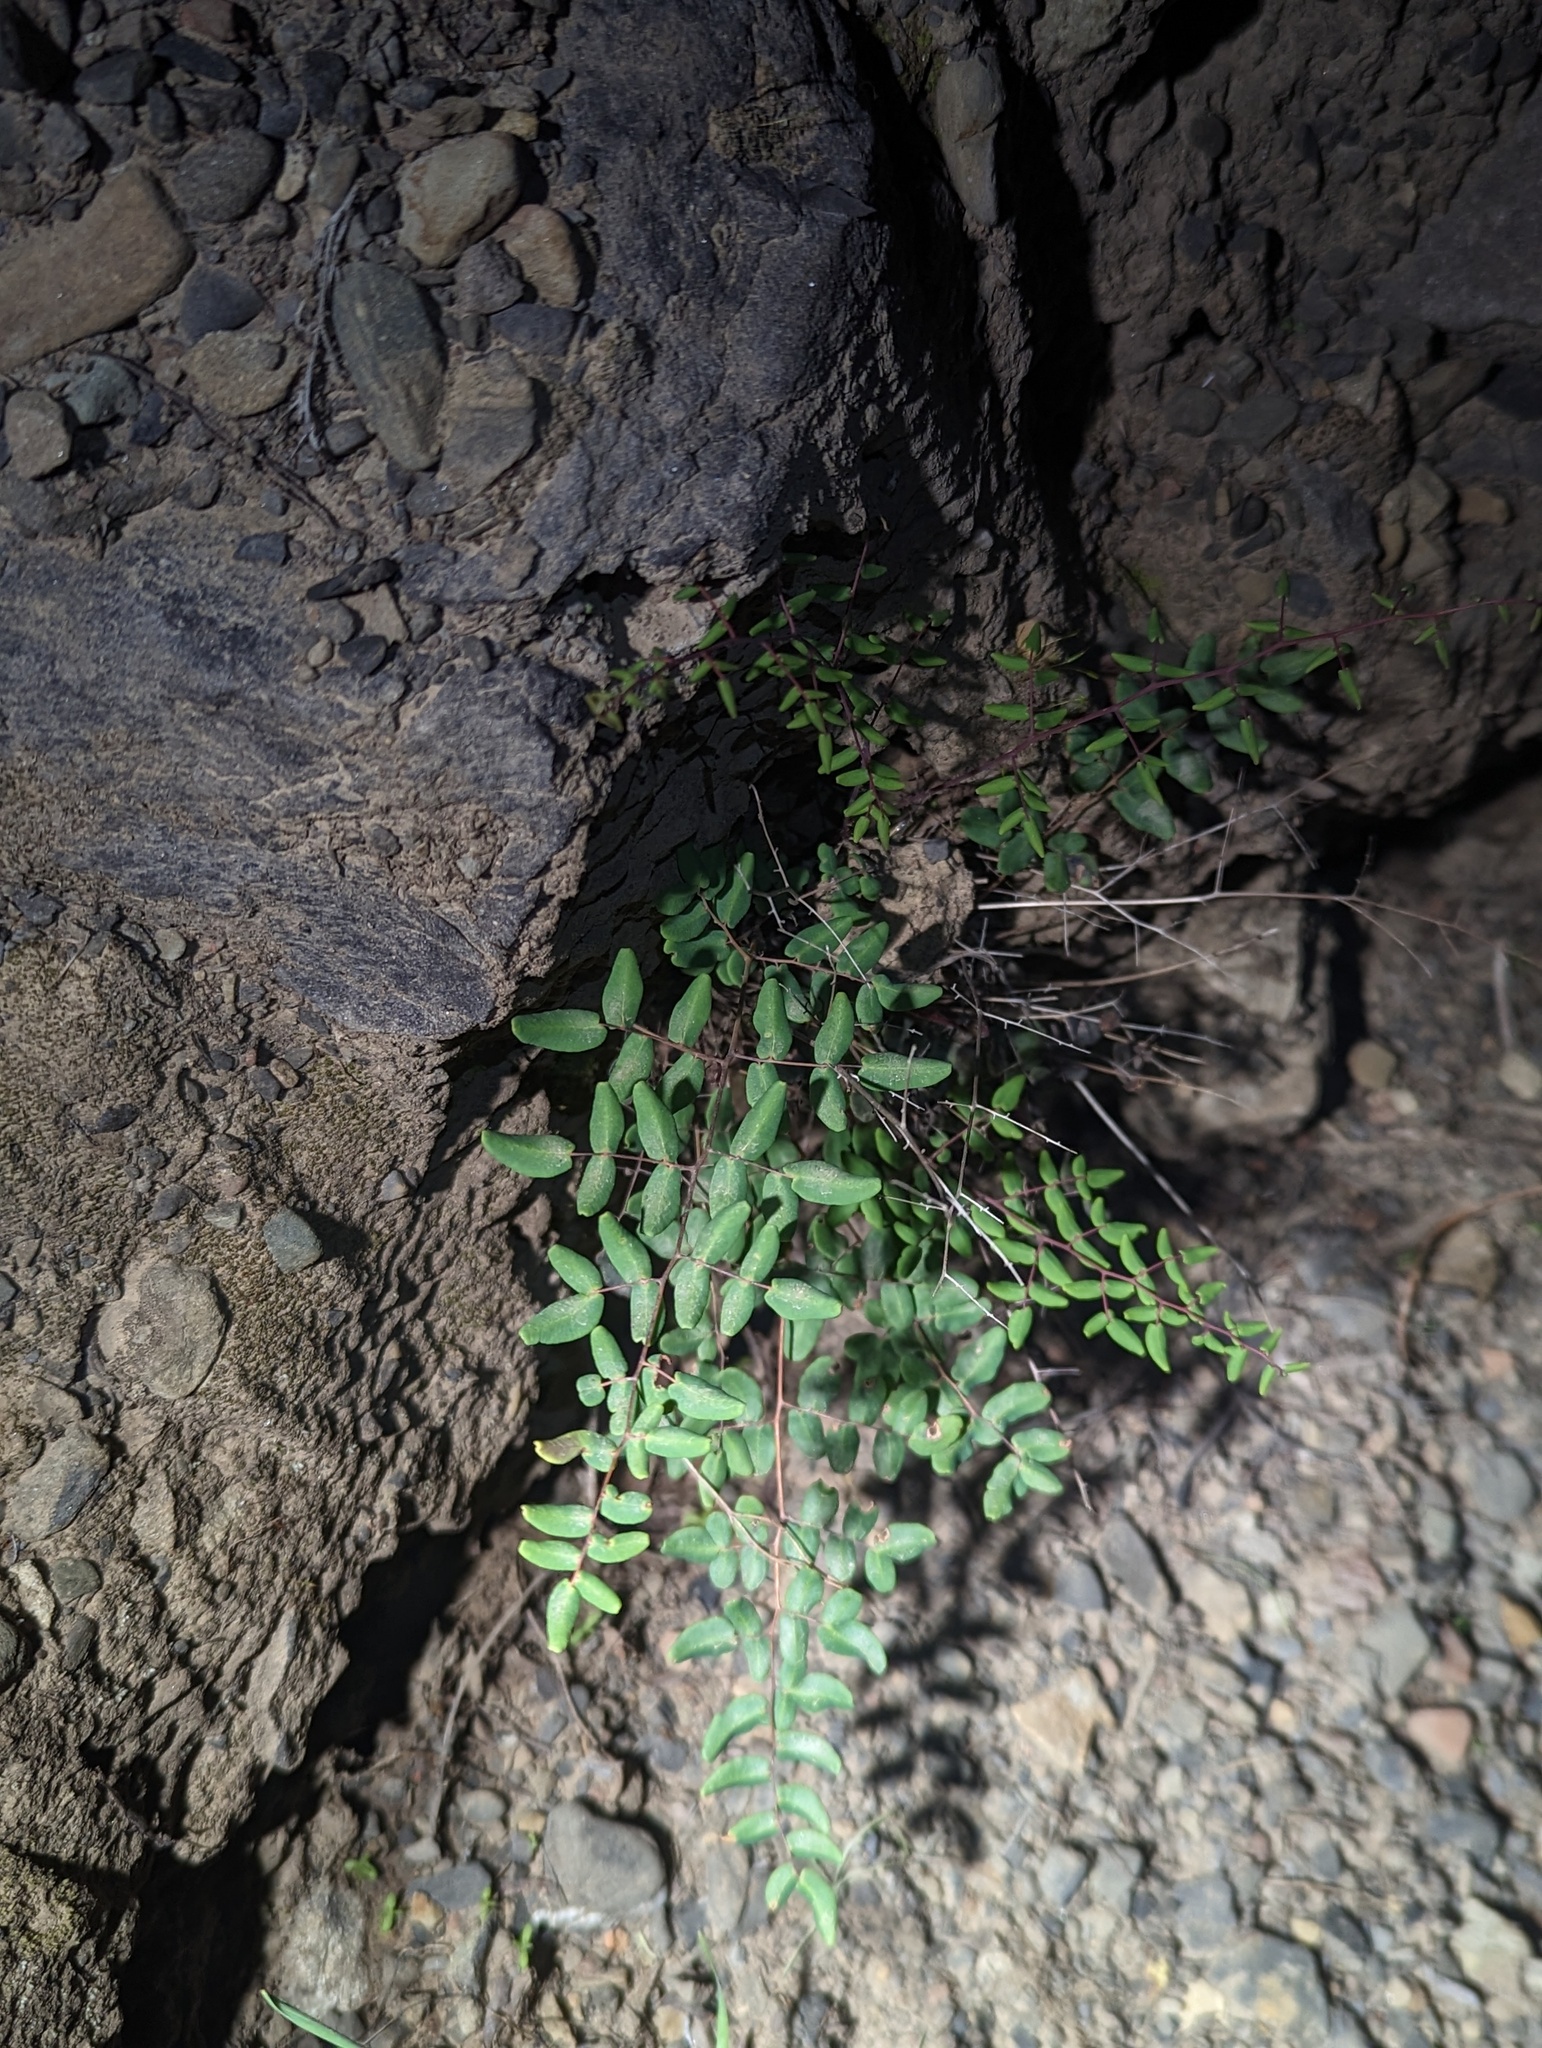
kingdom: Plantae
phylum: Tracheophyta
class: Polypodiopsida
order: Polypodiales
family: Pteridaceae
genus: Pellaea
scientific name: Pellaea andromedifolia
